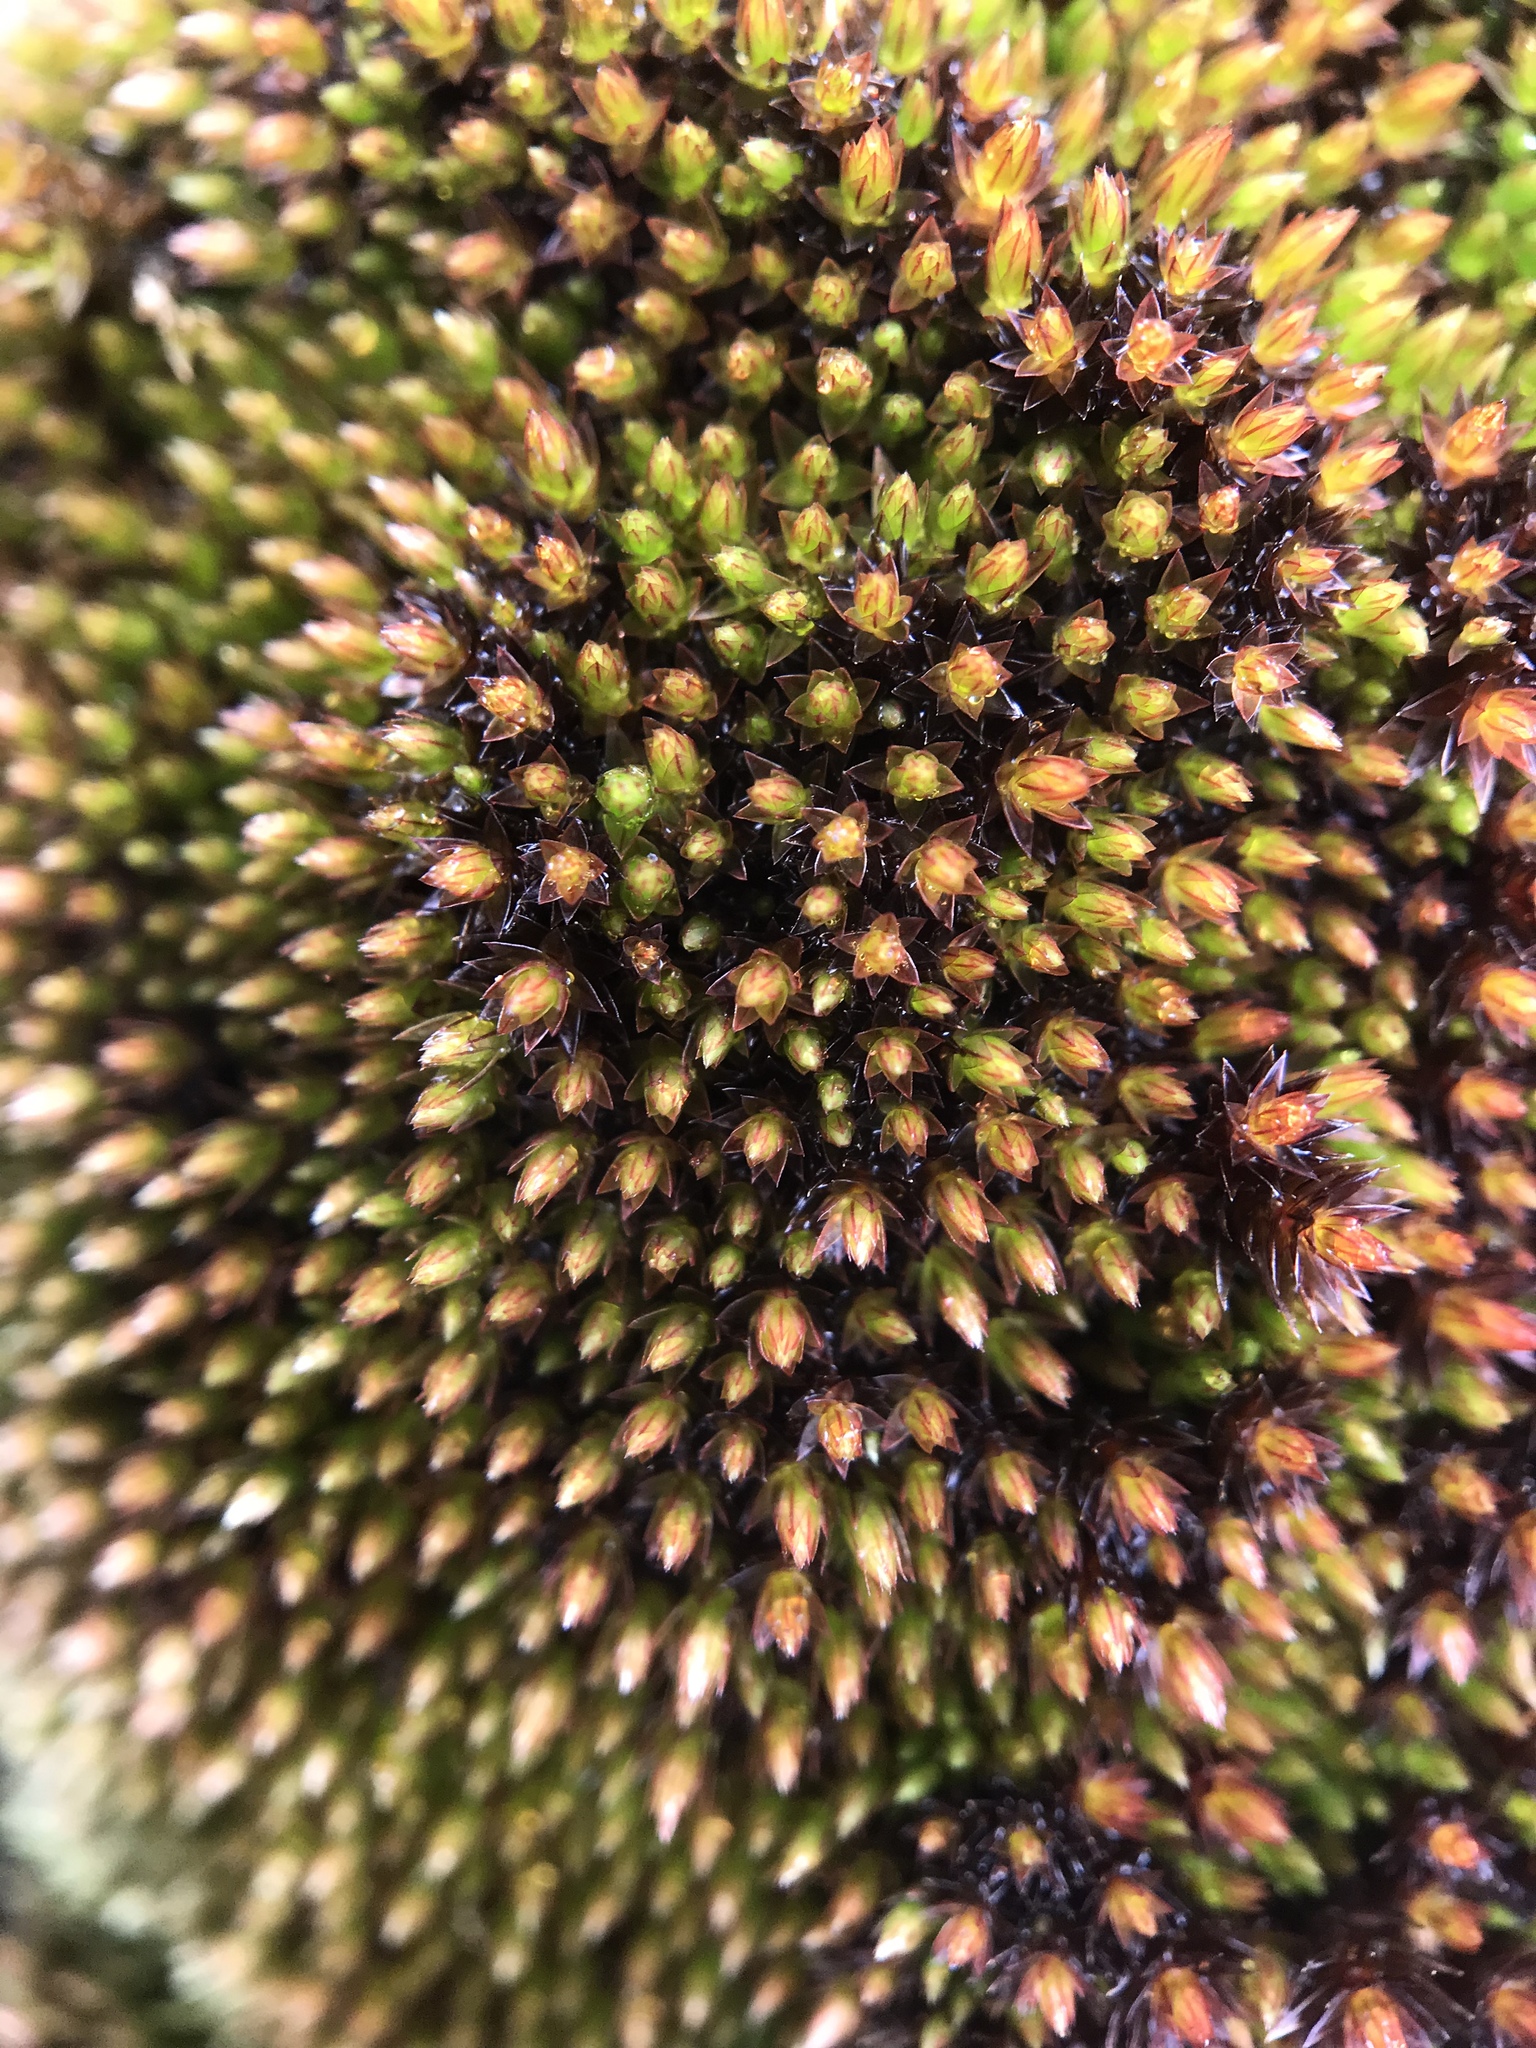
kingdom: Plantae
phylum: Bryophyta
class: Bryopsida
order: Bryales
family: Bryaceae
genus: Ptychostomum
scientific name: Ptychostomum pseudotriquetrum
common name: Long-leaved thread moss
